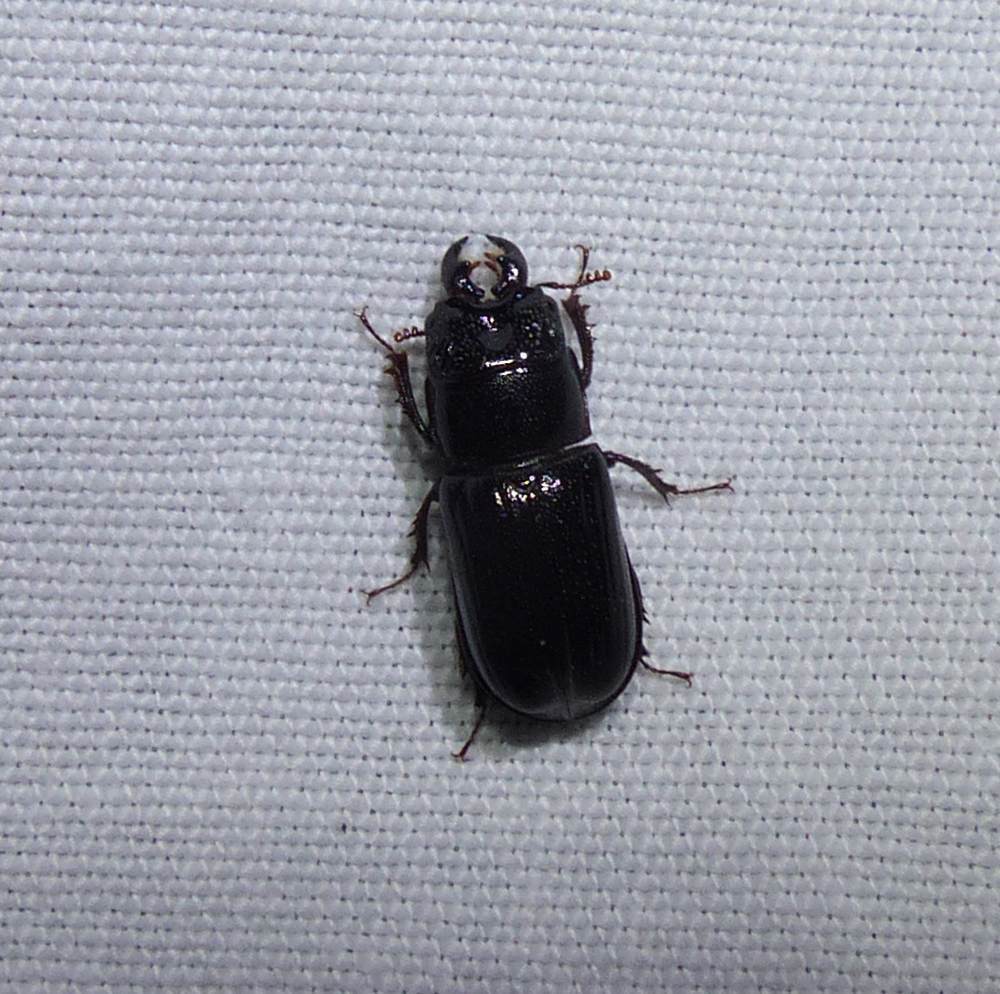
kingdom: Animalia
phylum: Arthropoda
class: Insecta
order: Coleoptera
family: Lucanidae
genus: Ceruchus
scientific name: Ceruchus piceus
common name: Red-rot decay stag beetle
